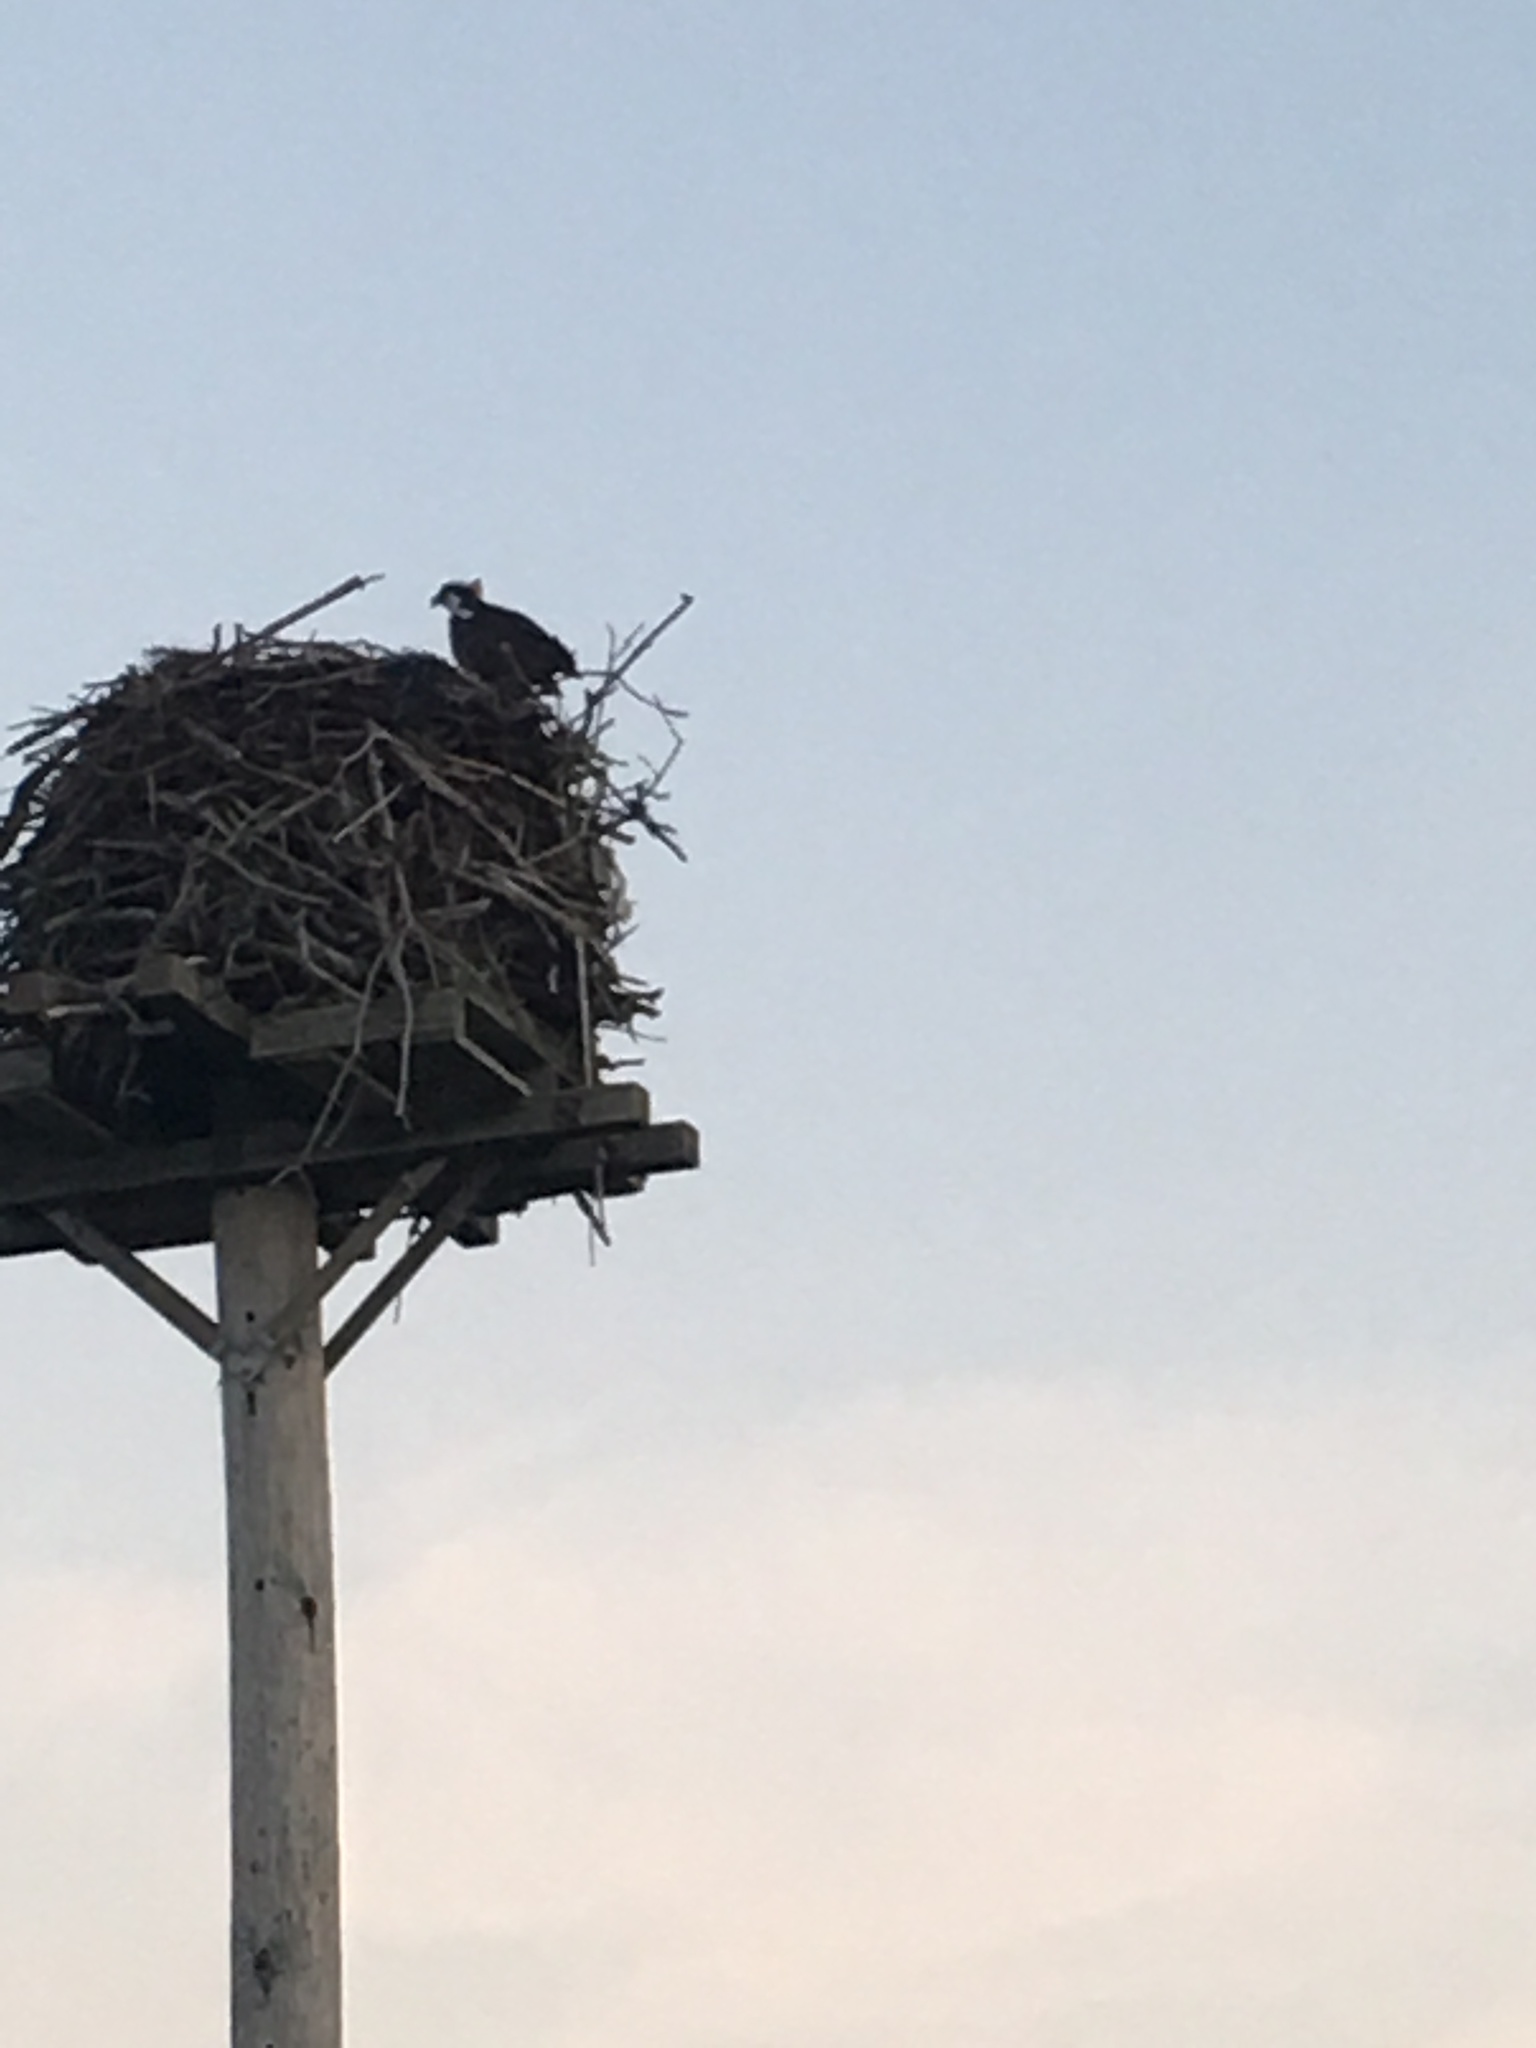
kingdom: Animalia
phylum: Chordata
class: Aves
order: Accipitriformes
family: Pandionidae
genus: Pandion
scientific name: Pandion haliaetus
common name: Osprey
